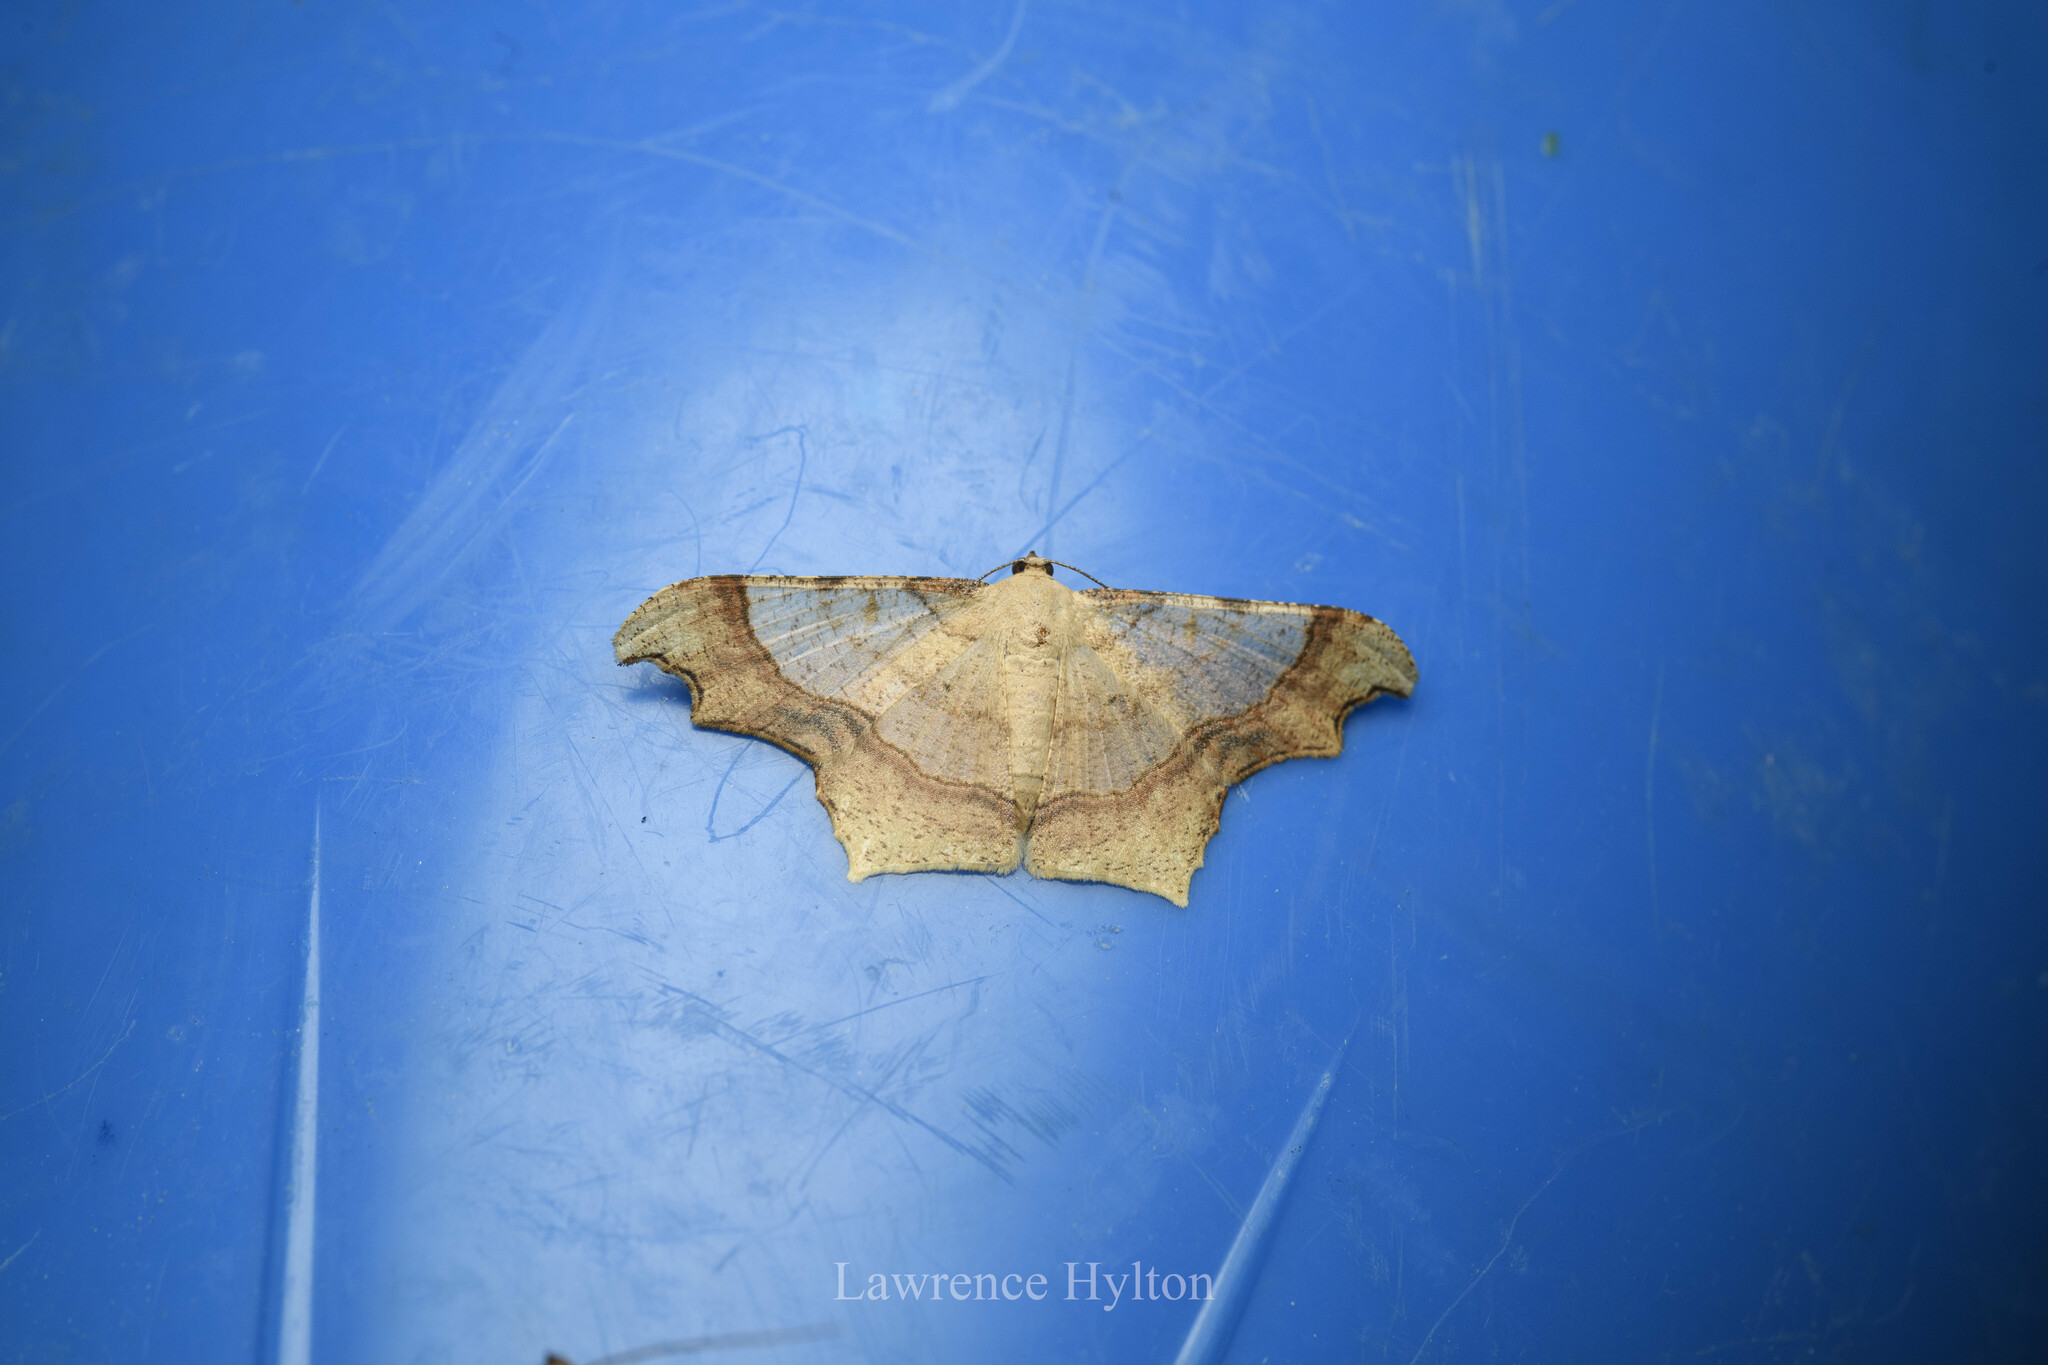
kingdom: Animalia
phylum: Arthropoda
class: Insecta
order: Lepidoptera
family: Geometridae
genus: Zeheba
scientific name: Zeheba aureata
